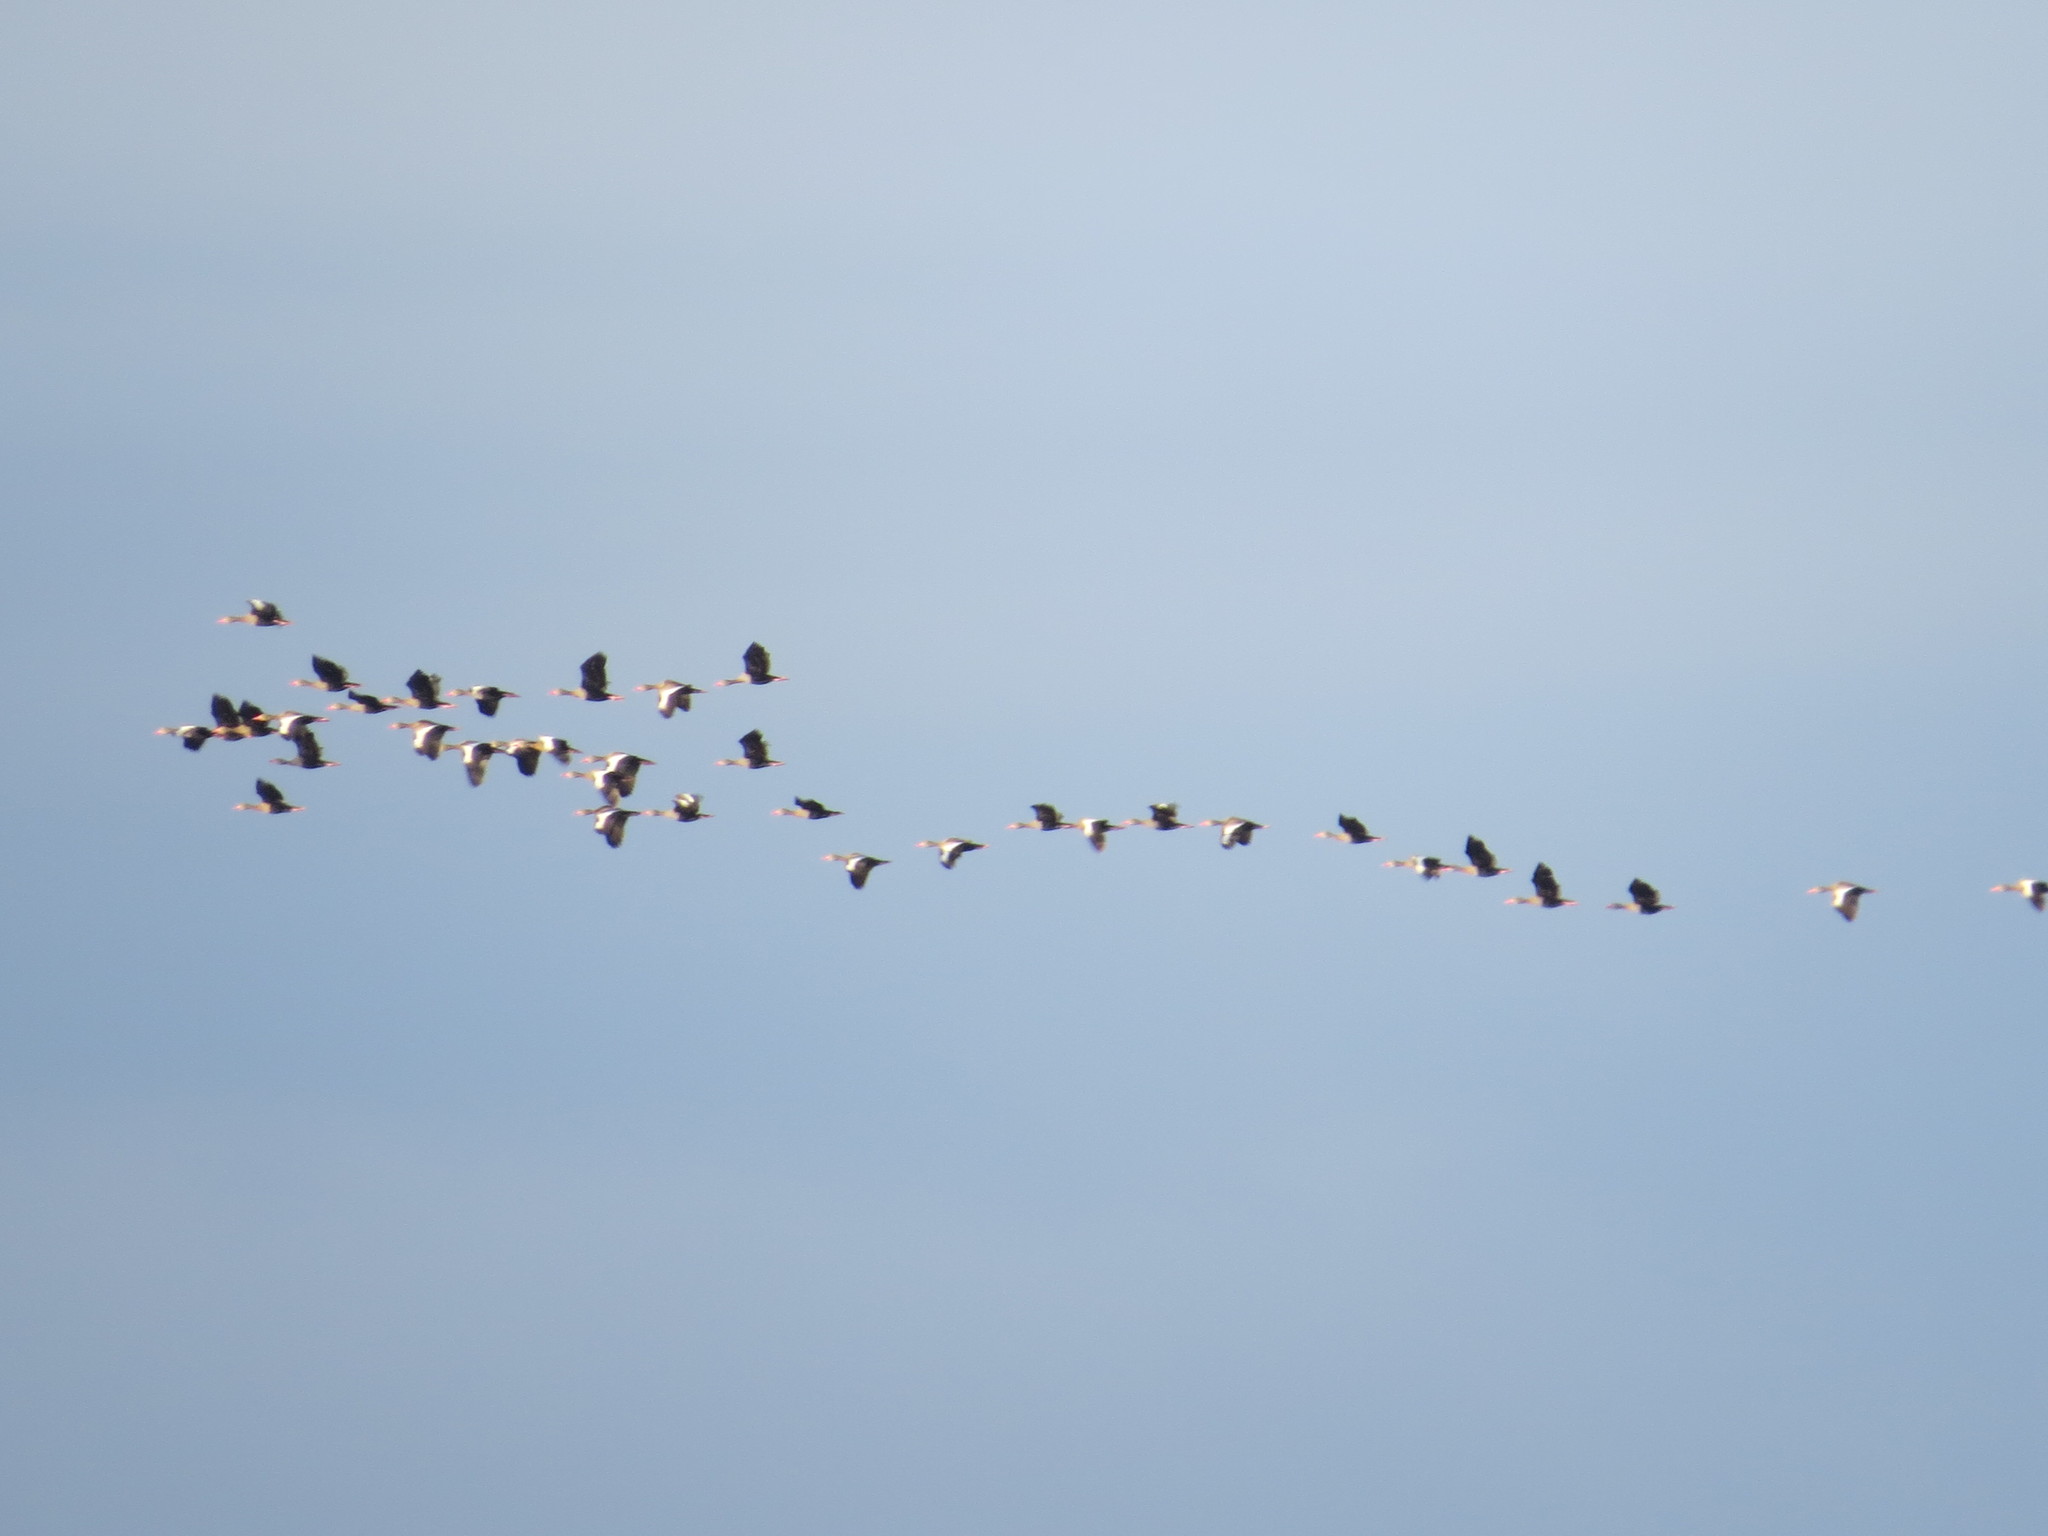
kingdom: Animalia
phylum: Chordata
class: Aves
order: Anseriformes
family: Anatidae
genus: Dendrocygna
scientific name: Dendrocygna autumnalis
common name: Black-bellied whistling duck
